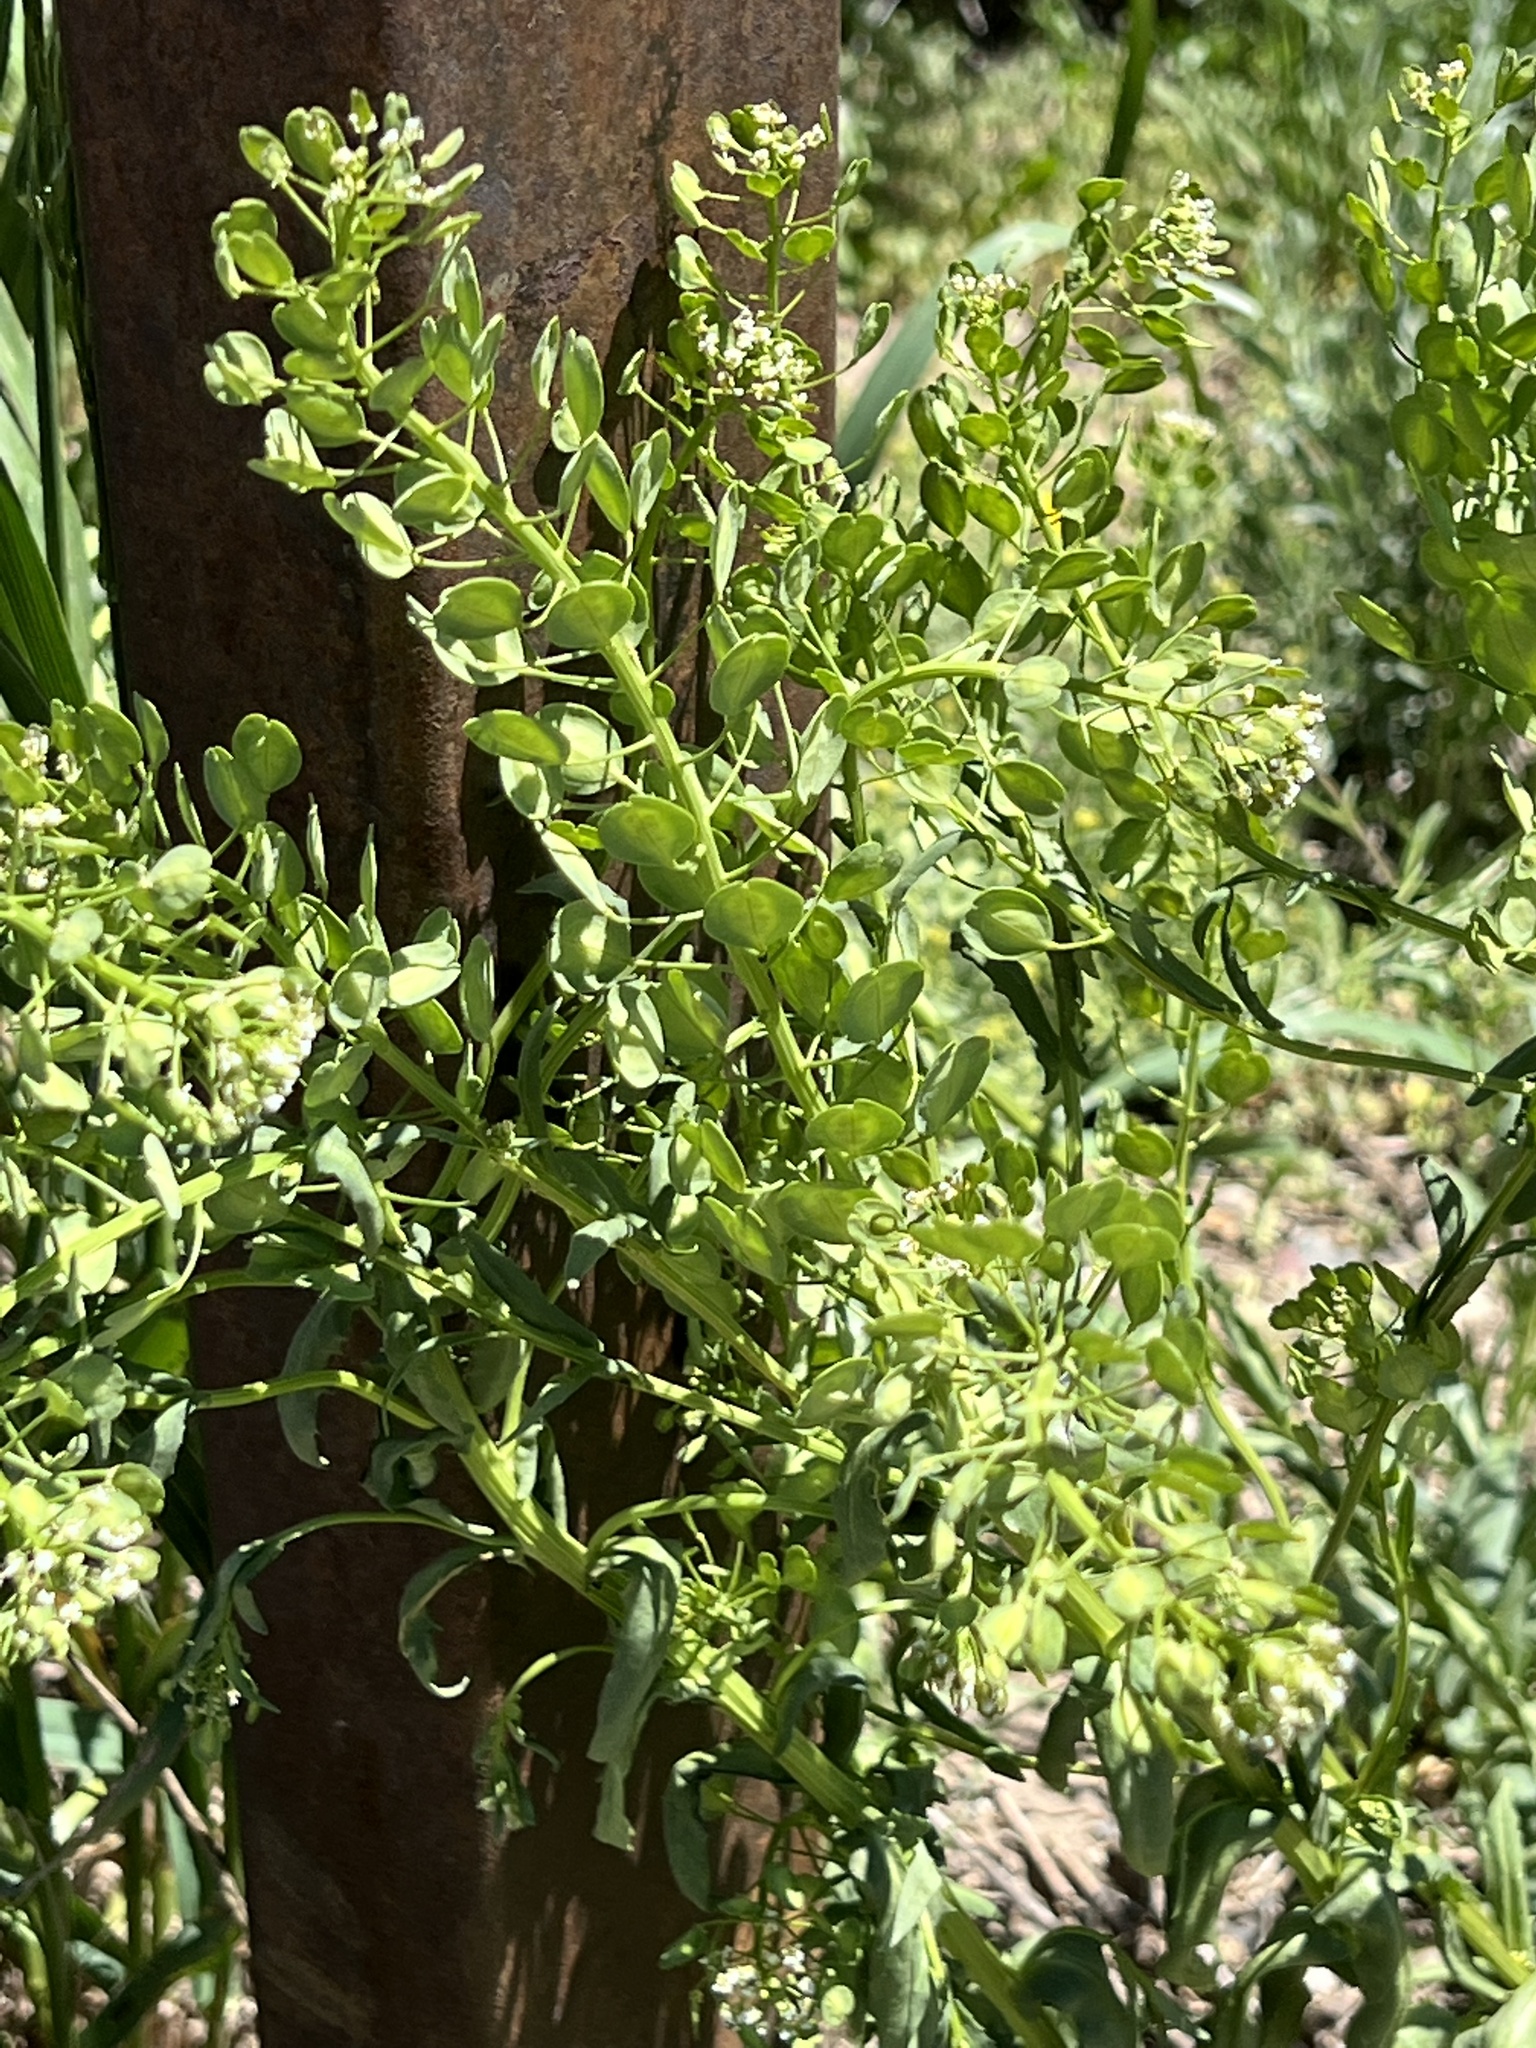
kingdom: Plantae
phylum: Tracheophyta
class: Magnoliopsida
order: Brassicales
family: Brassicaceae
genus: Thlaspi
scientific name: Thlaspi arvense
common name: Field pennycress
